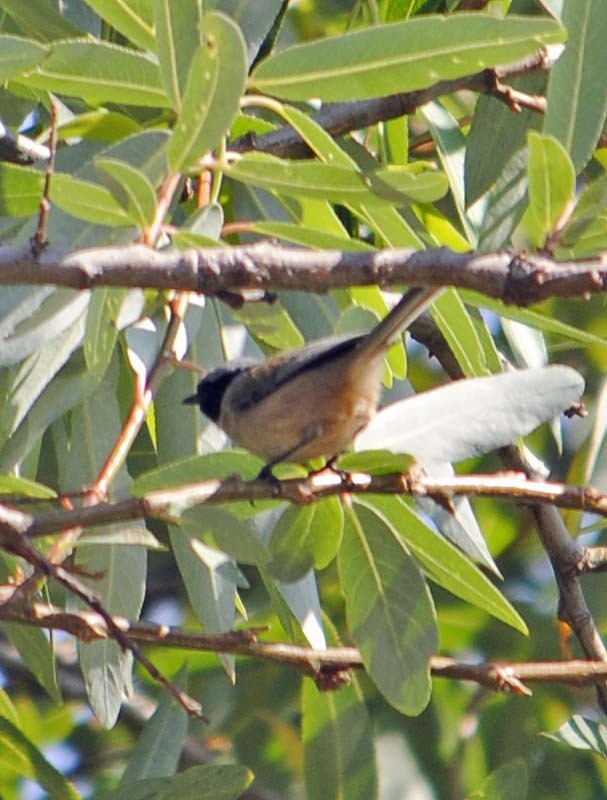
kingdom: Animalia
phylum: Chordata
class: Aves
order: Passeriformes
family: Aegithalidae
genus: Psaltriparus
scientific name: Psaltriparus minimus
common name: American bushtit
